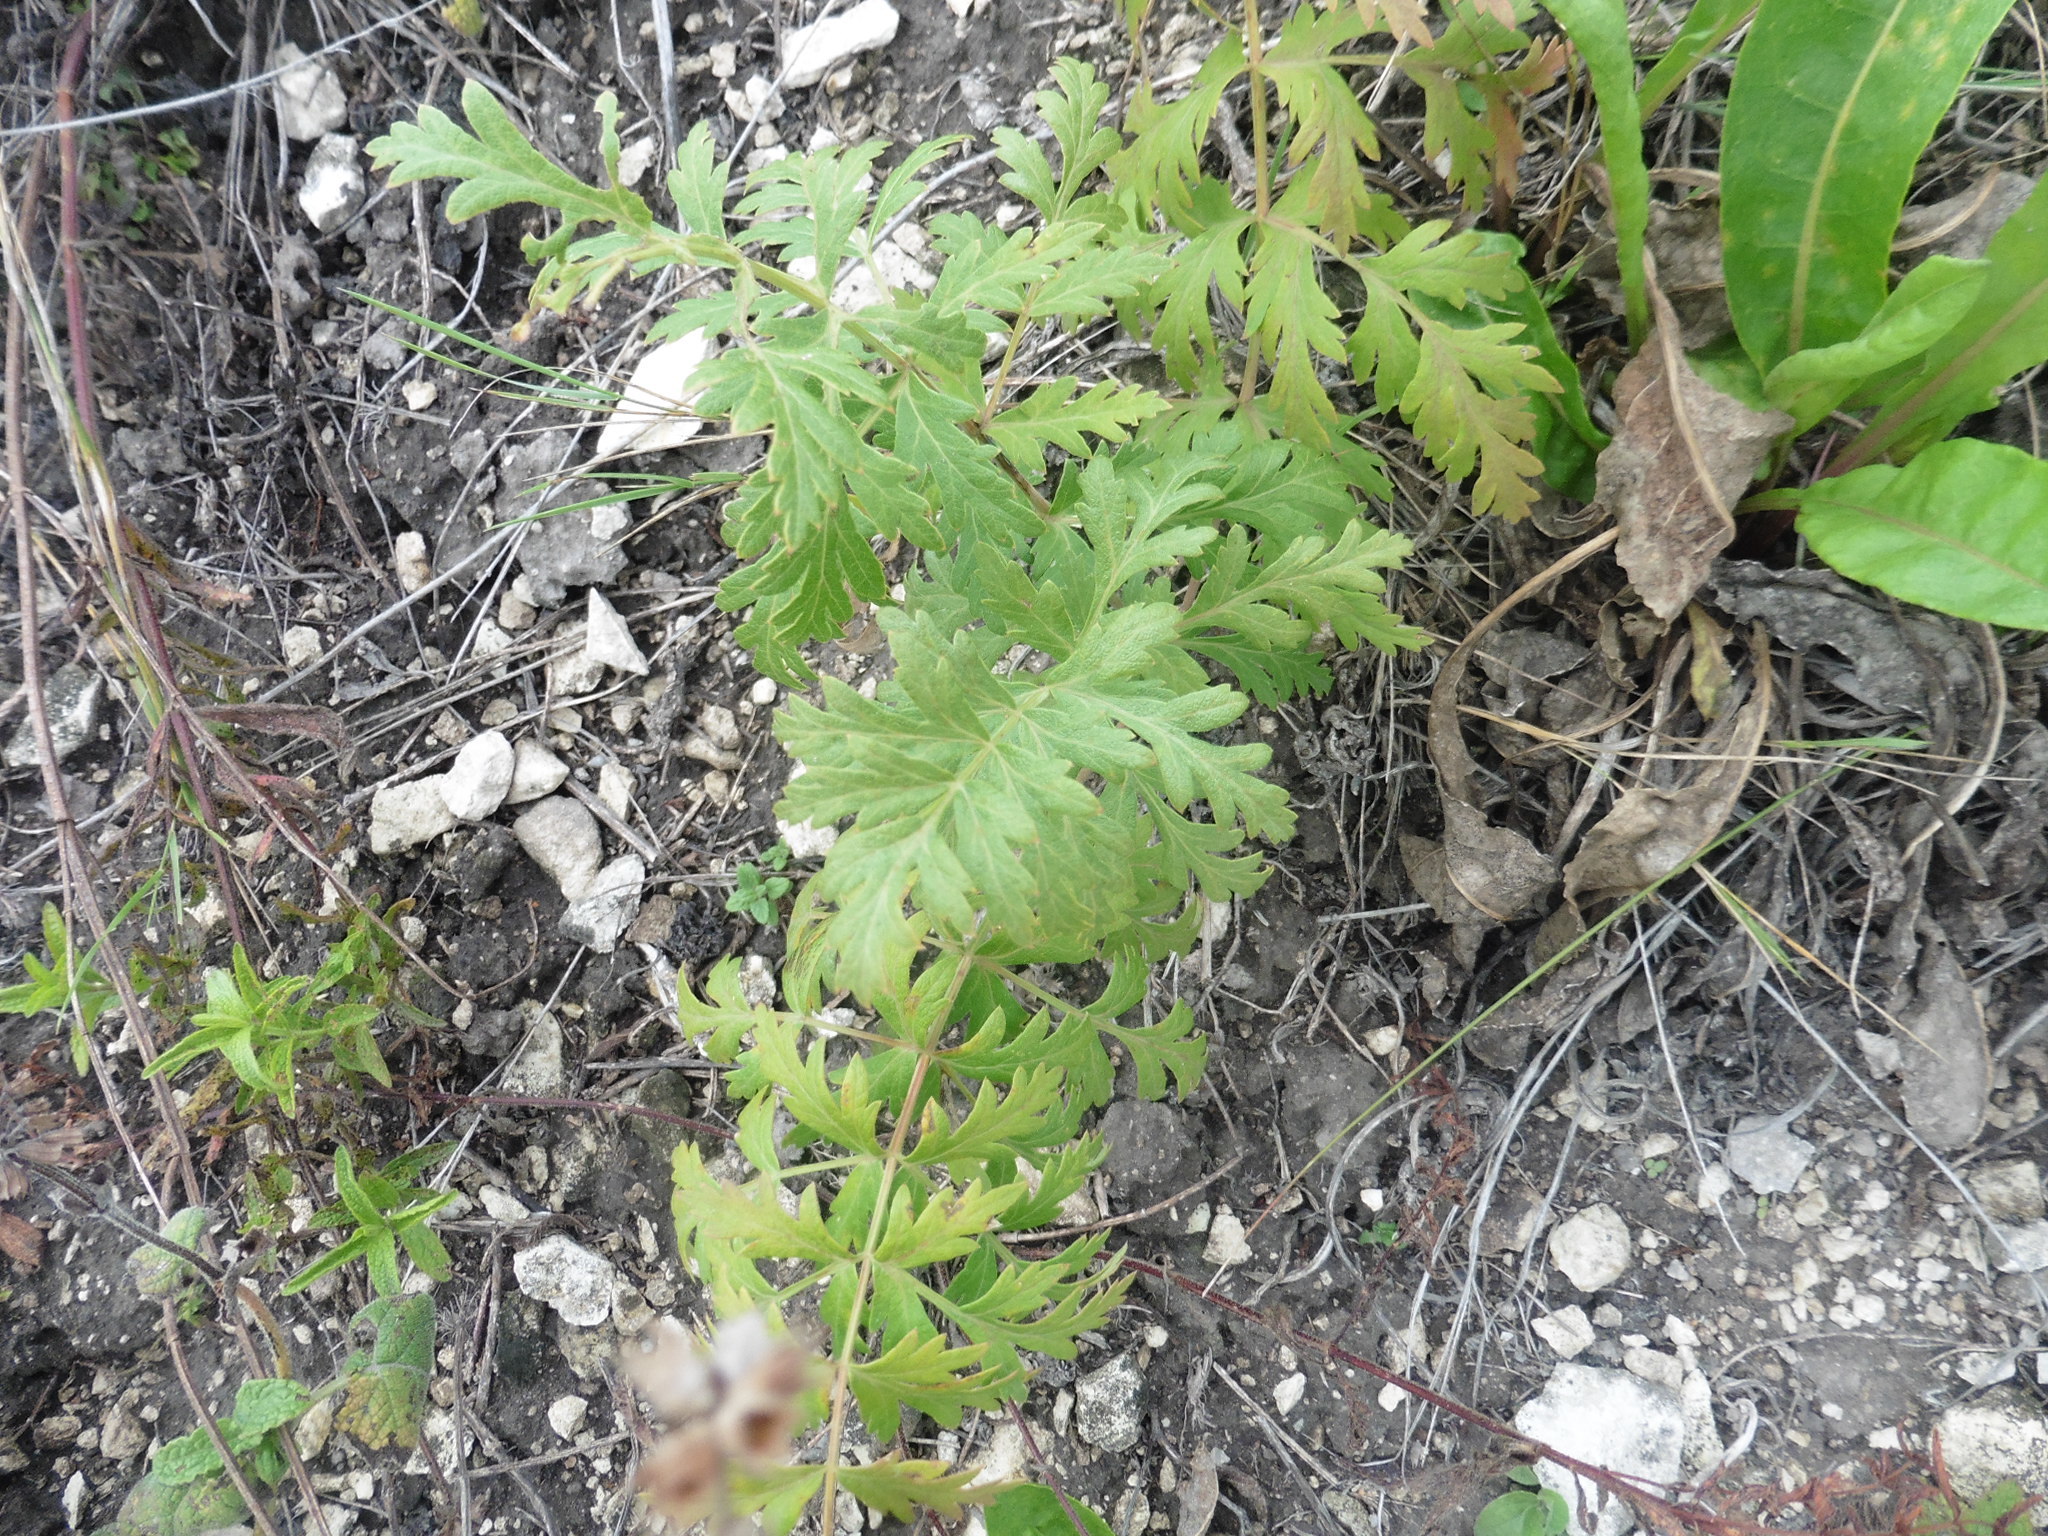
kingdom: Plantae
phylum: Tracheophyta
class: Magnoliopsida
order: Apiales
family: Apiaceae
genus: Seseli
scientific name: Seseli libanotis
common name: Mooncarrot
